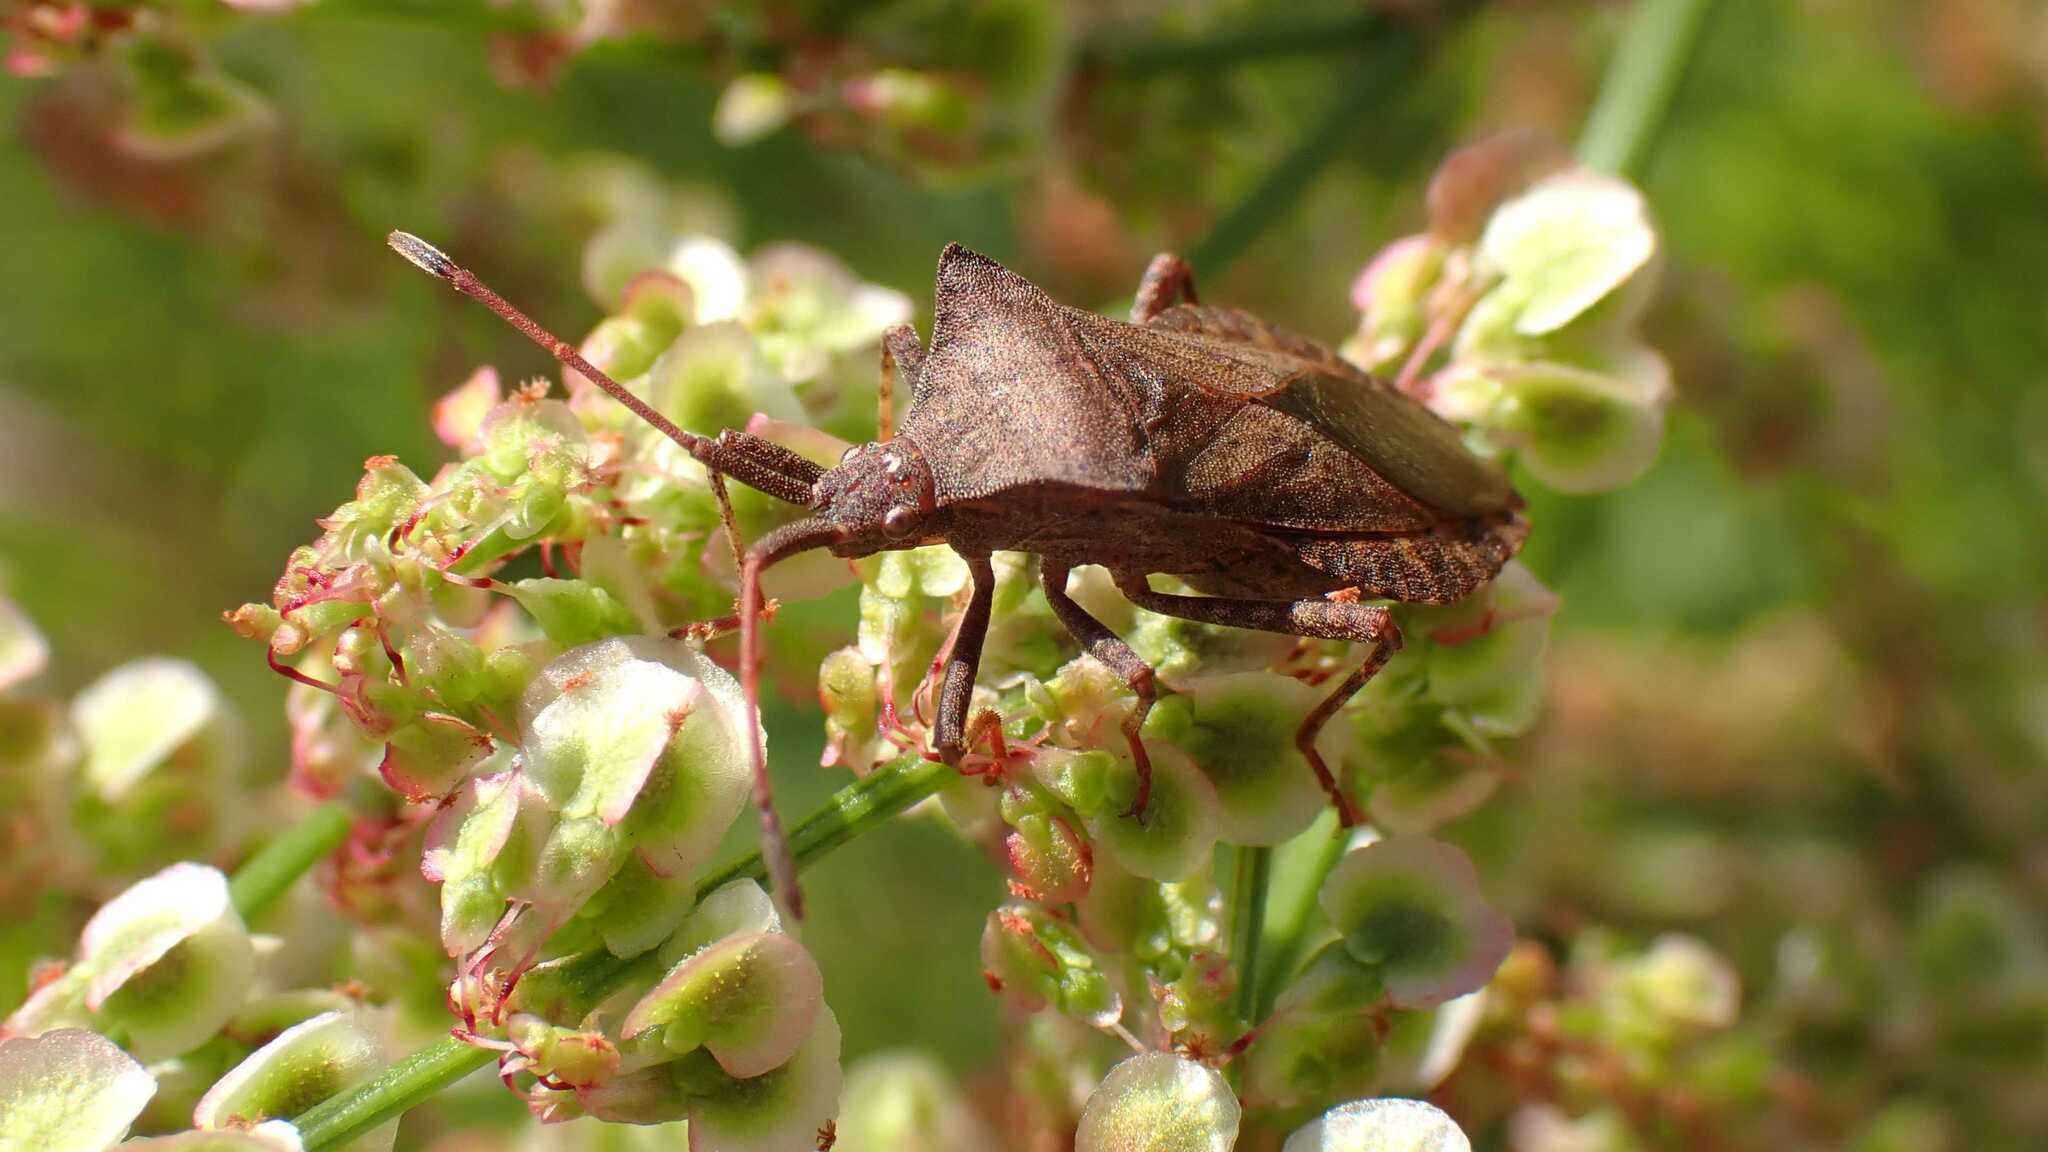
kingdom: Animalia
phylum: Arthropoda
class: Insecta
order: Hemiptera
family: Coreidae
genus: Coreus
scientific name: Coreus marginatus
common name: Dock bug
